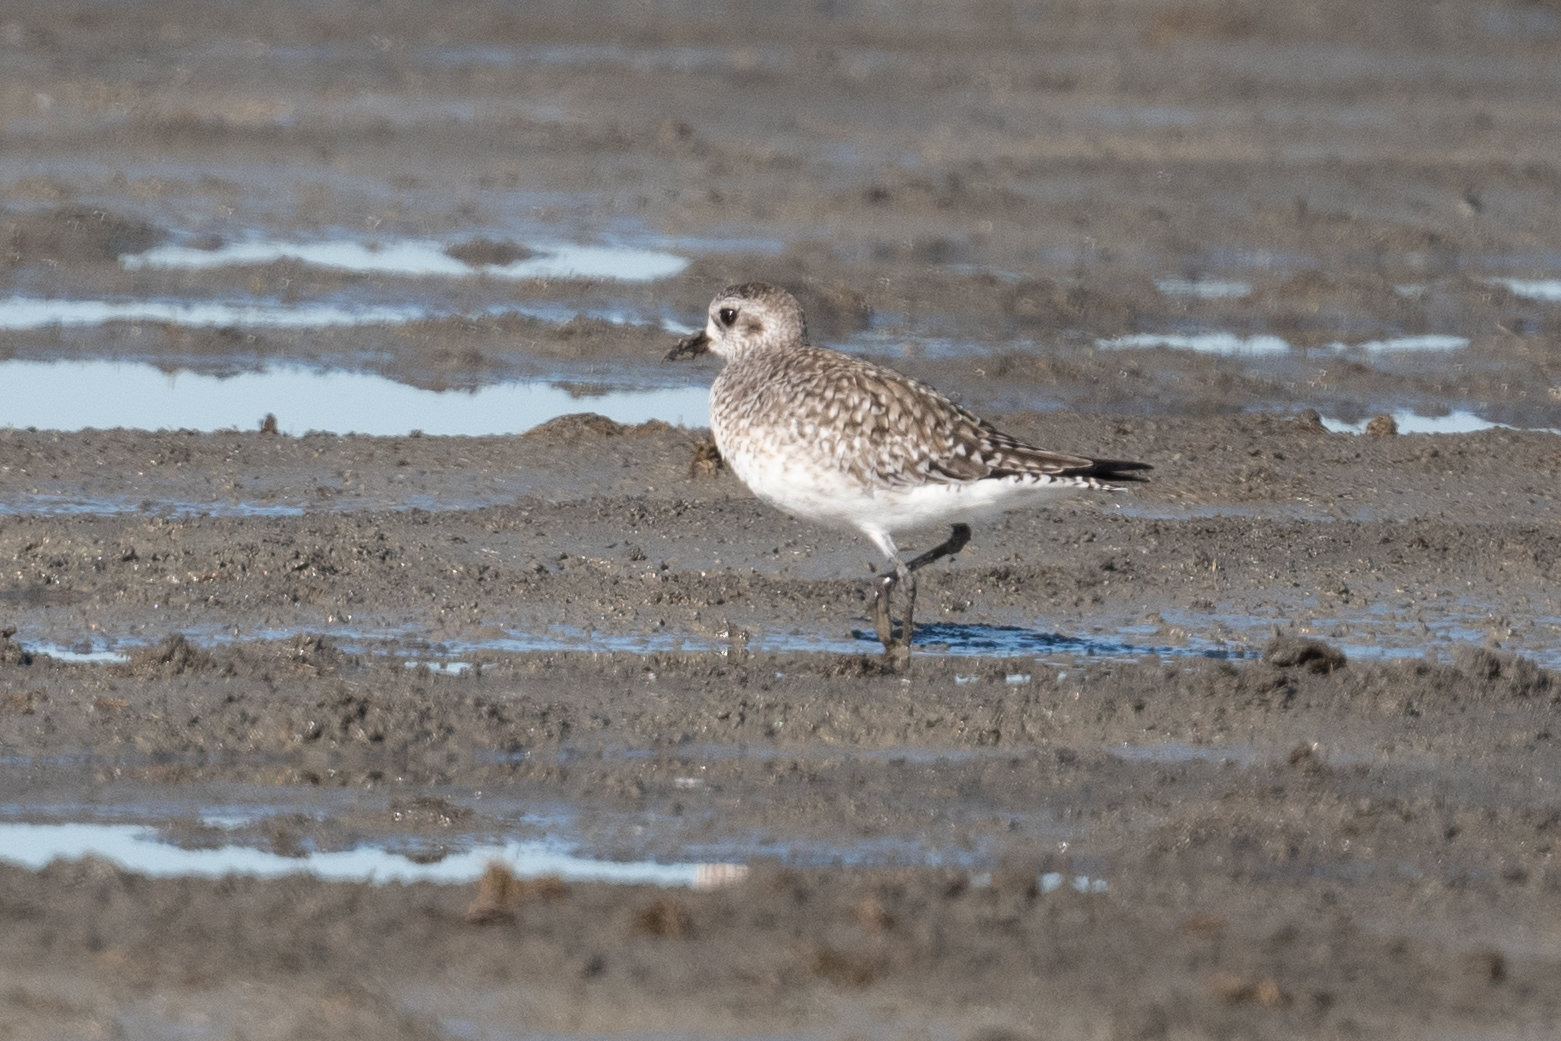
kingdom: Animalia
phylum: Chordata
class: Aves
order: Charadriiformes
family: Charadriidae
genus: Pluvialis
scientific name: Pluvialis squatarola
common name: Grey plover
